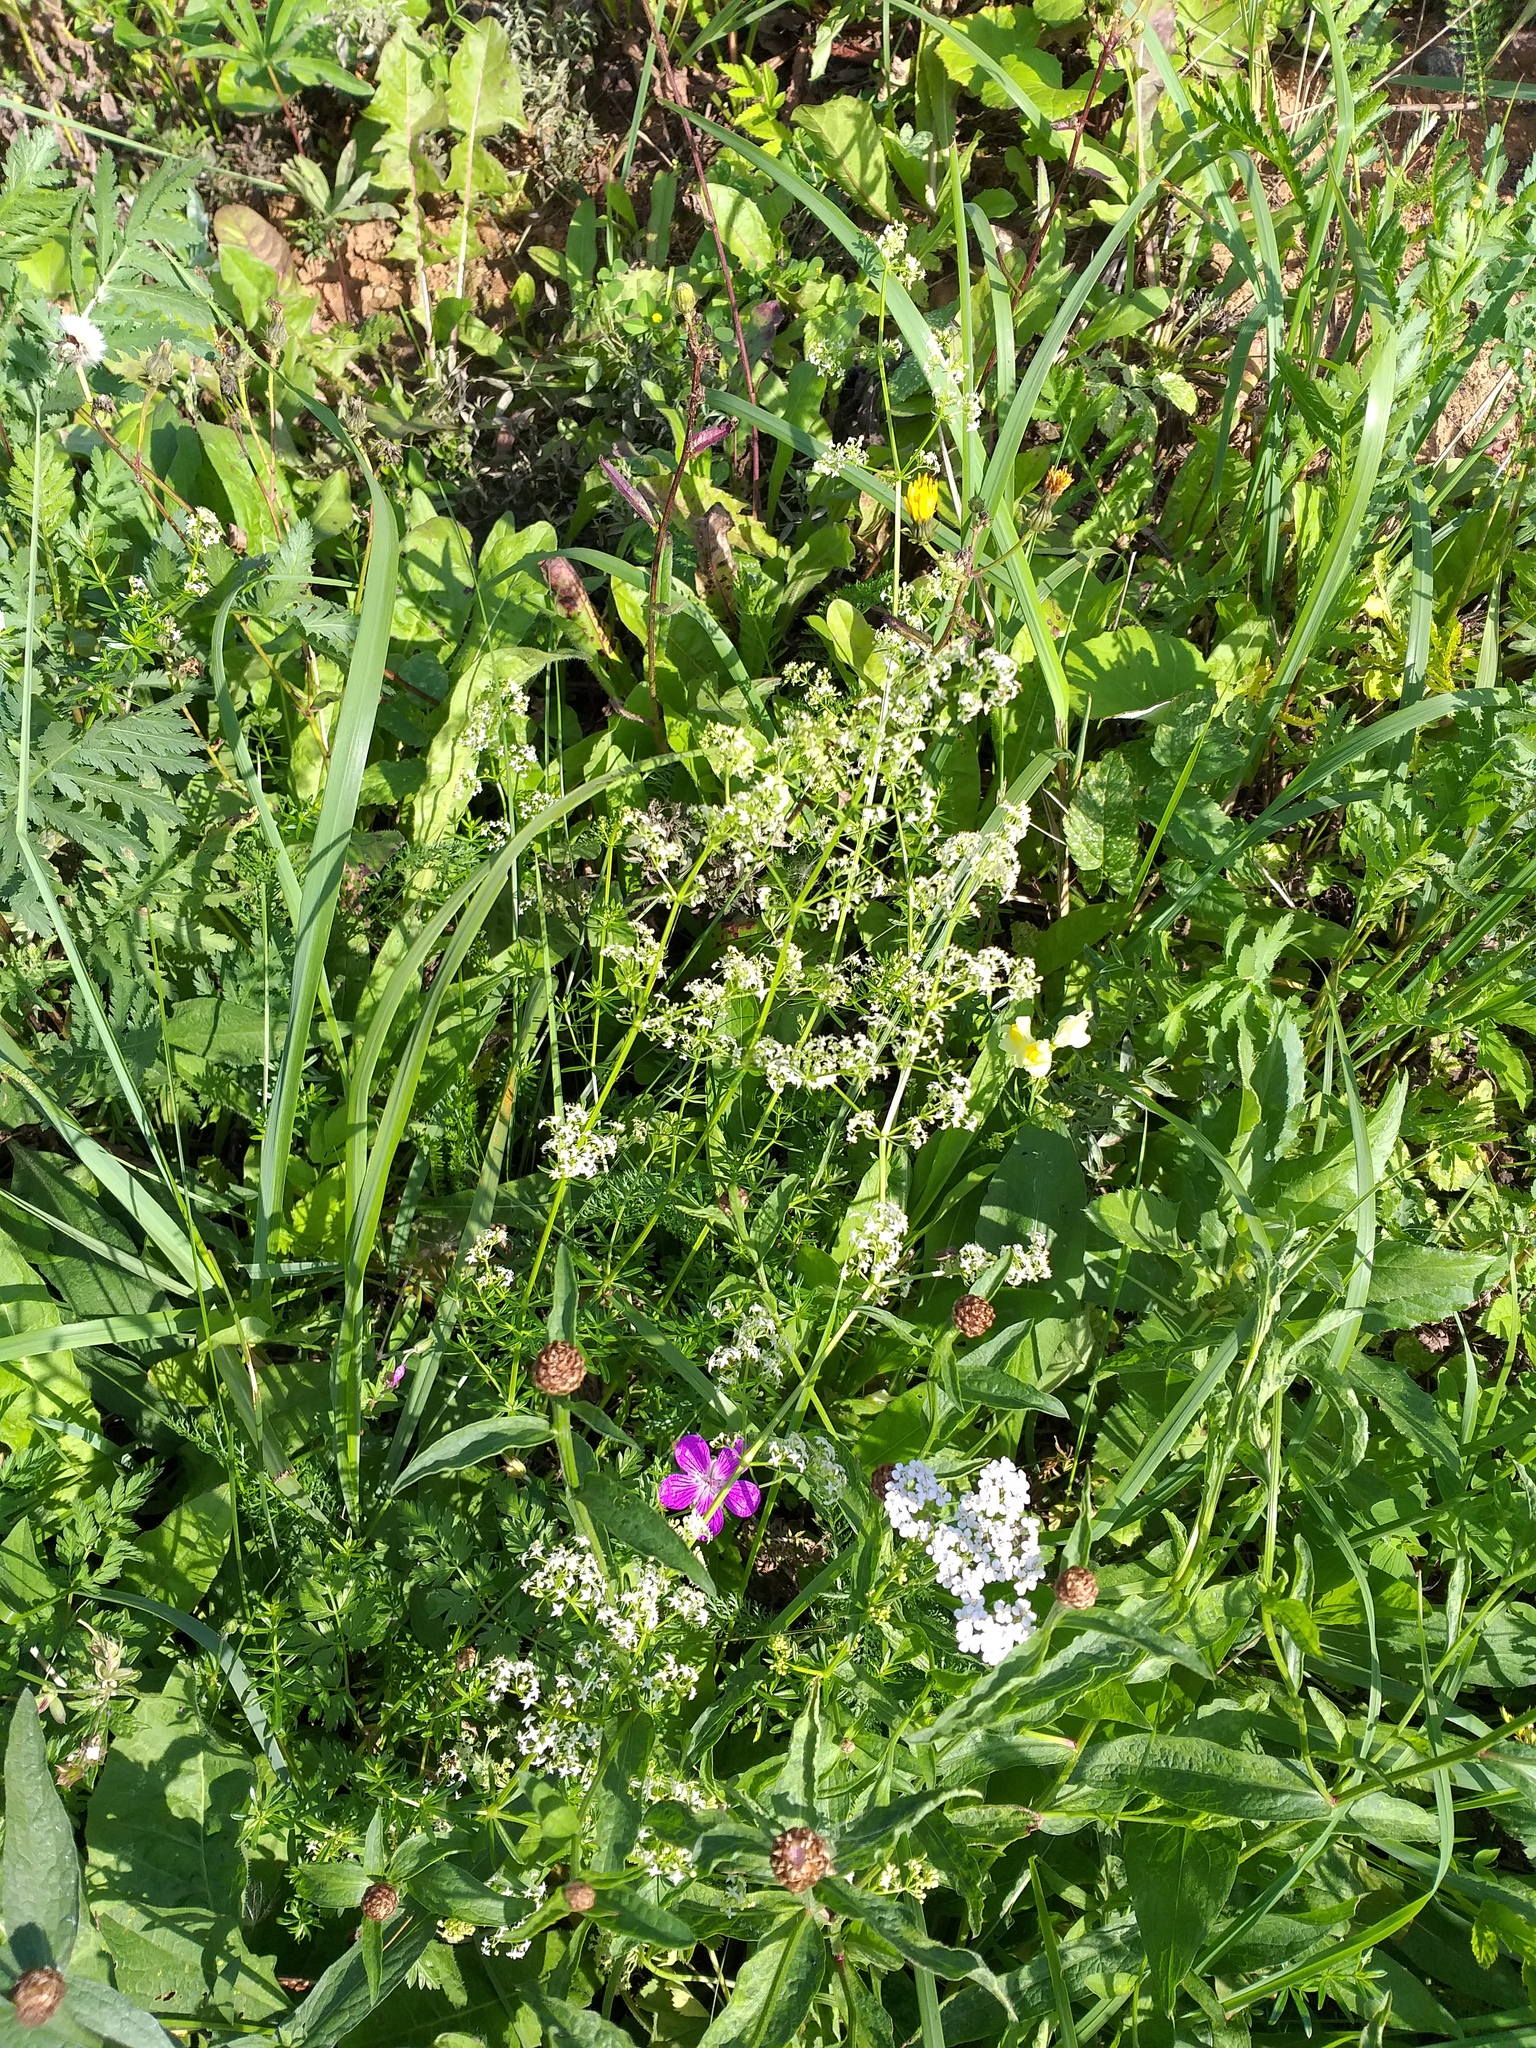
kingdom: Plantae
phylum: Tracheophyta
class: Magnoliopsida
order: Gentianales
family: Rubiaceae
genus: Galium
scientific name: Galium mollugo
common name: Hedge bedstraw
